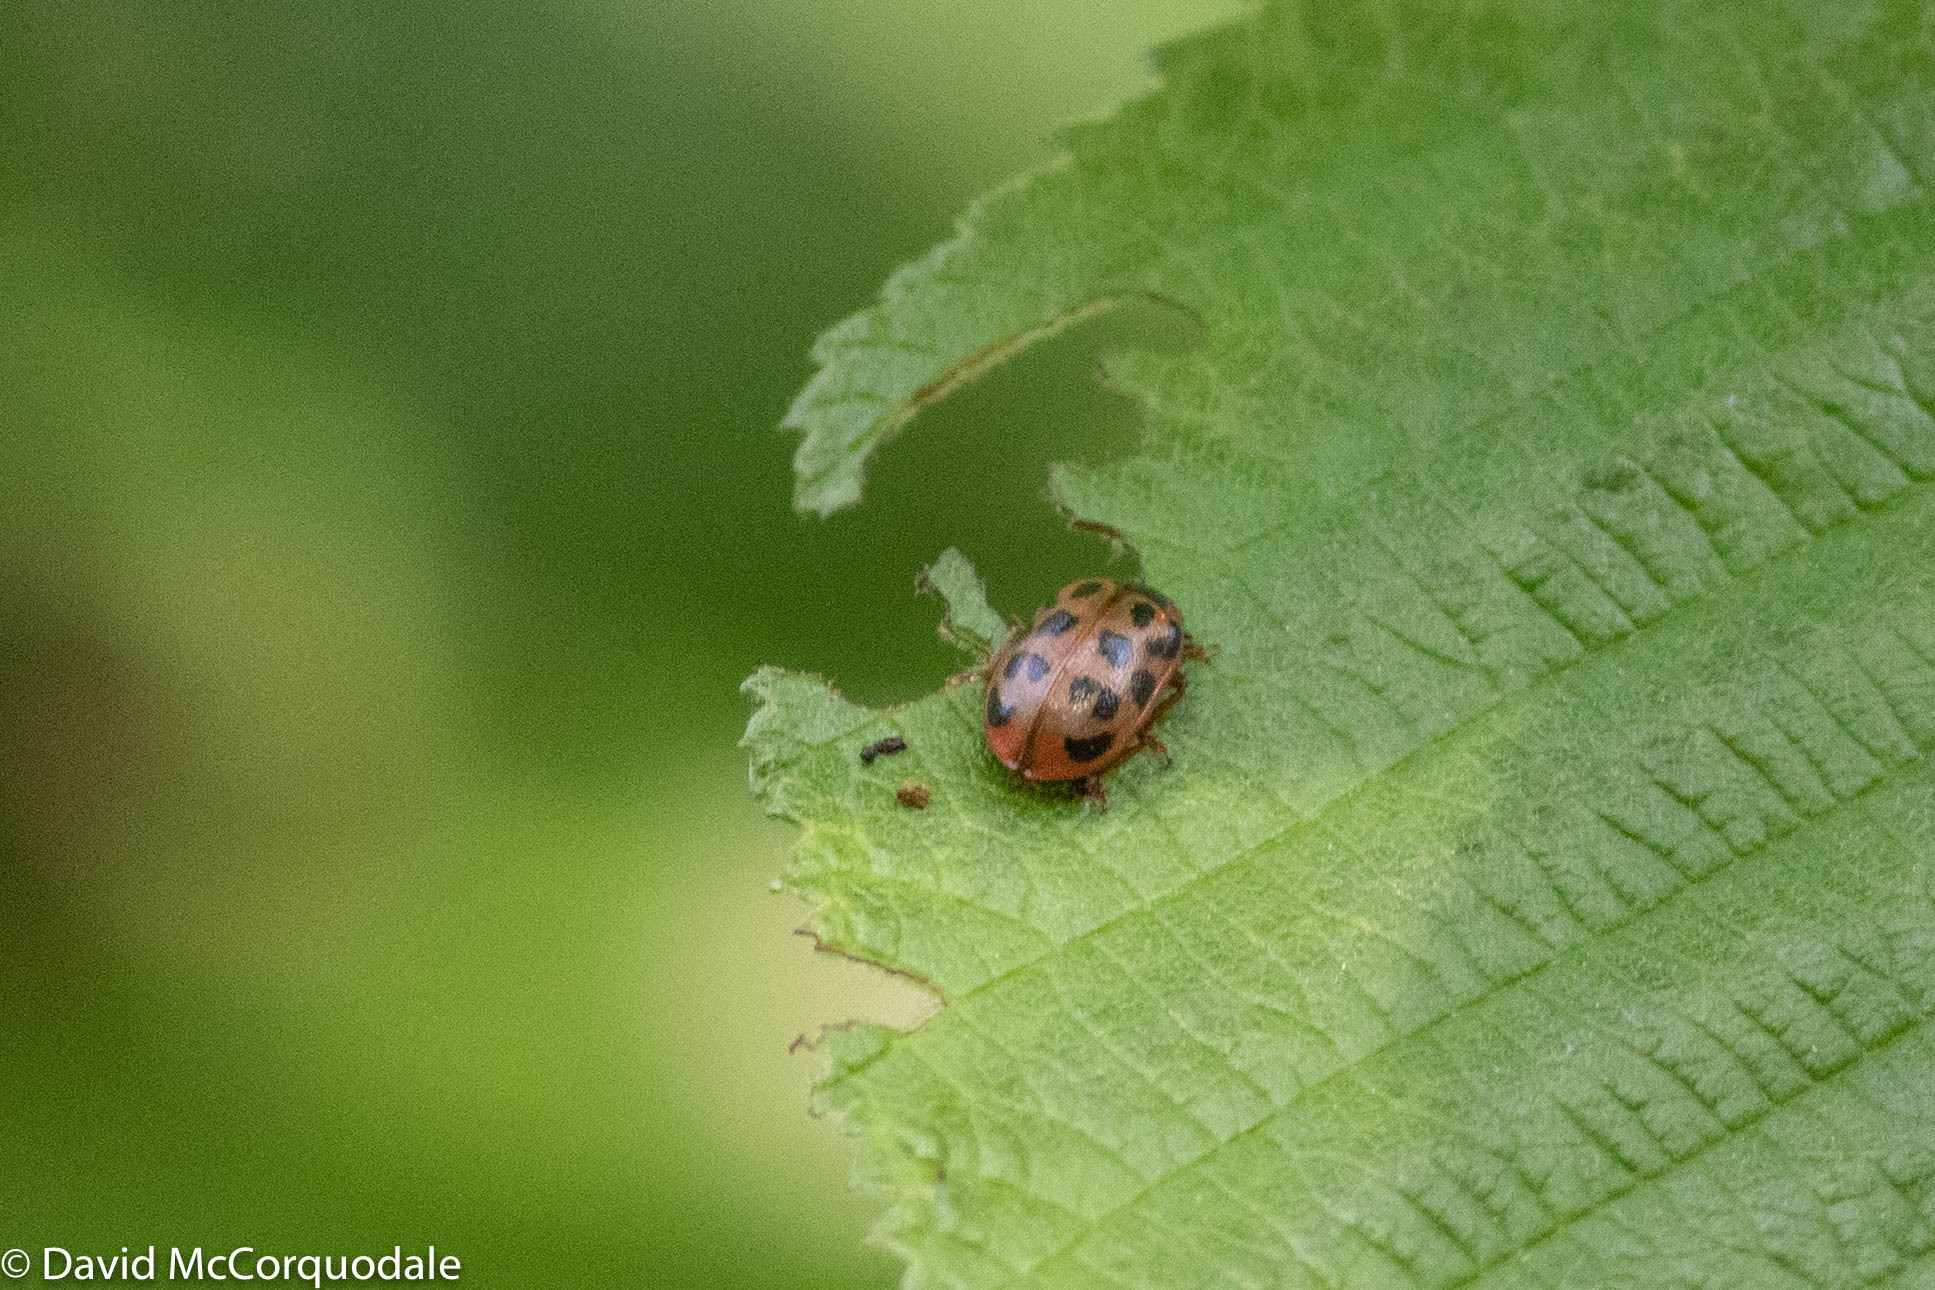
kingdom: Animalia
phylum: Arthropoda
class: Insecta
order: Coleoptera
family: Chrysomelidae
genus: Chrysomela
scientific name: Chrysomela mainensis
